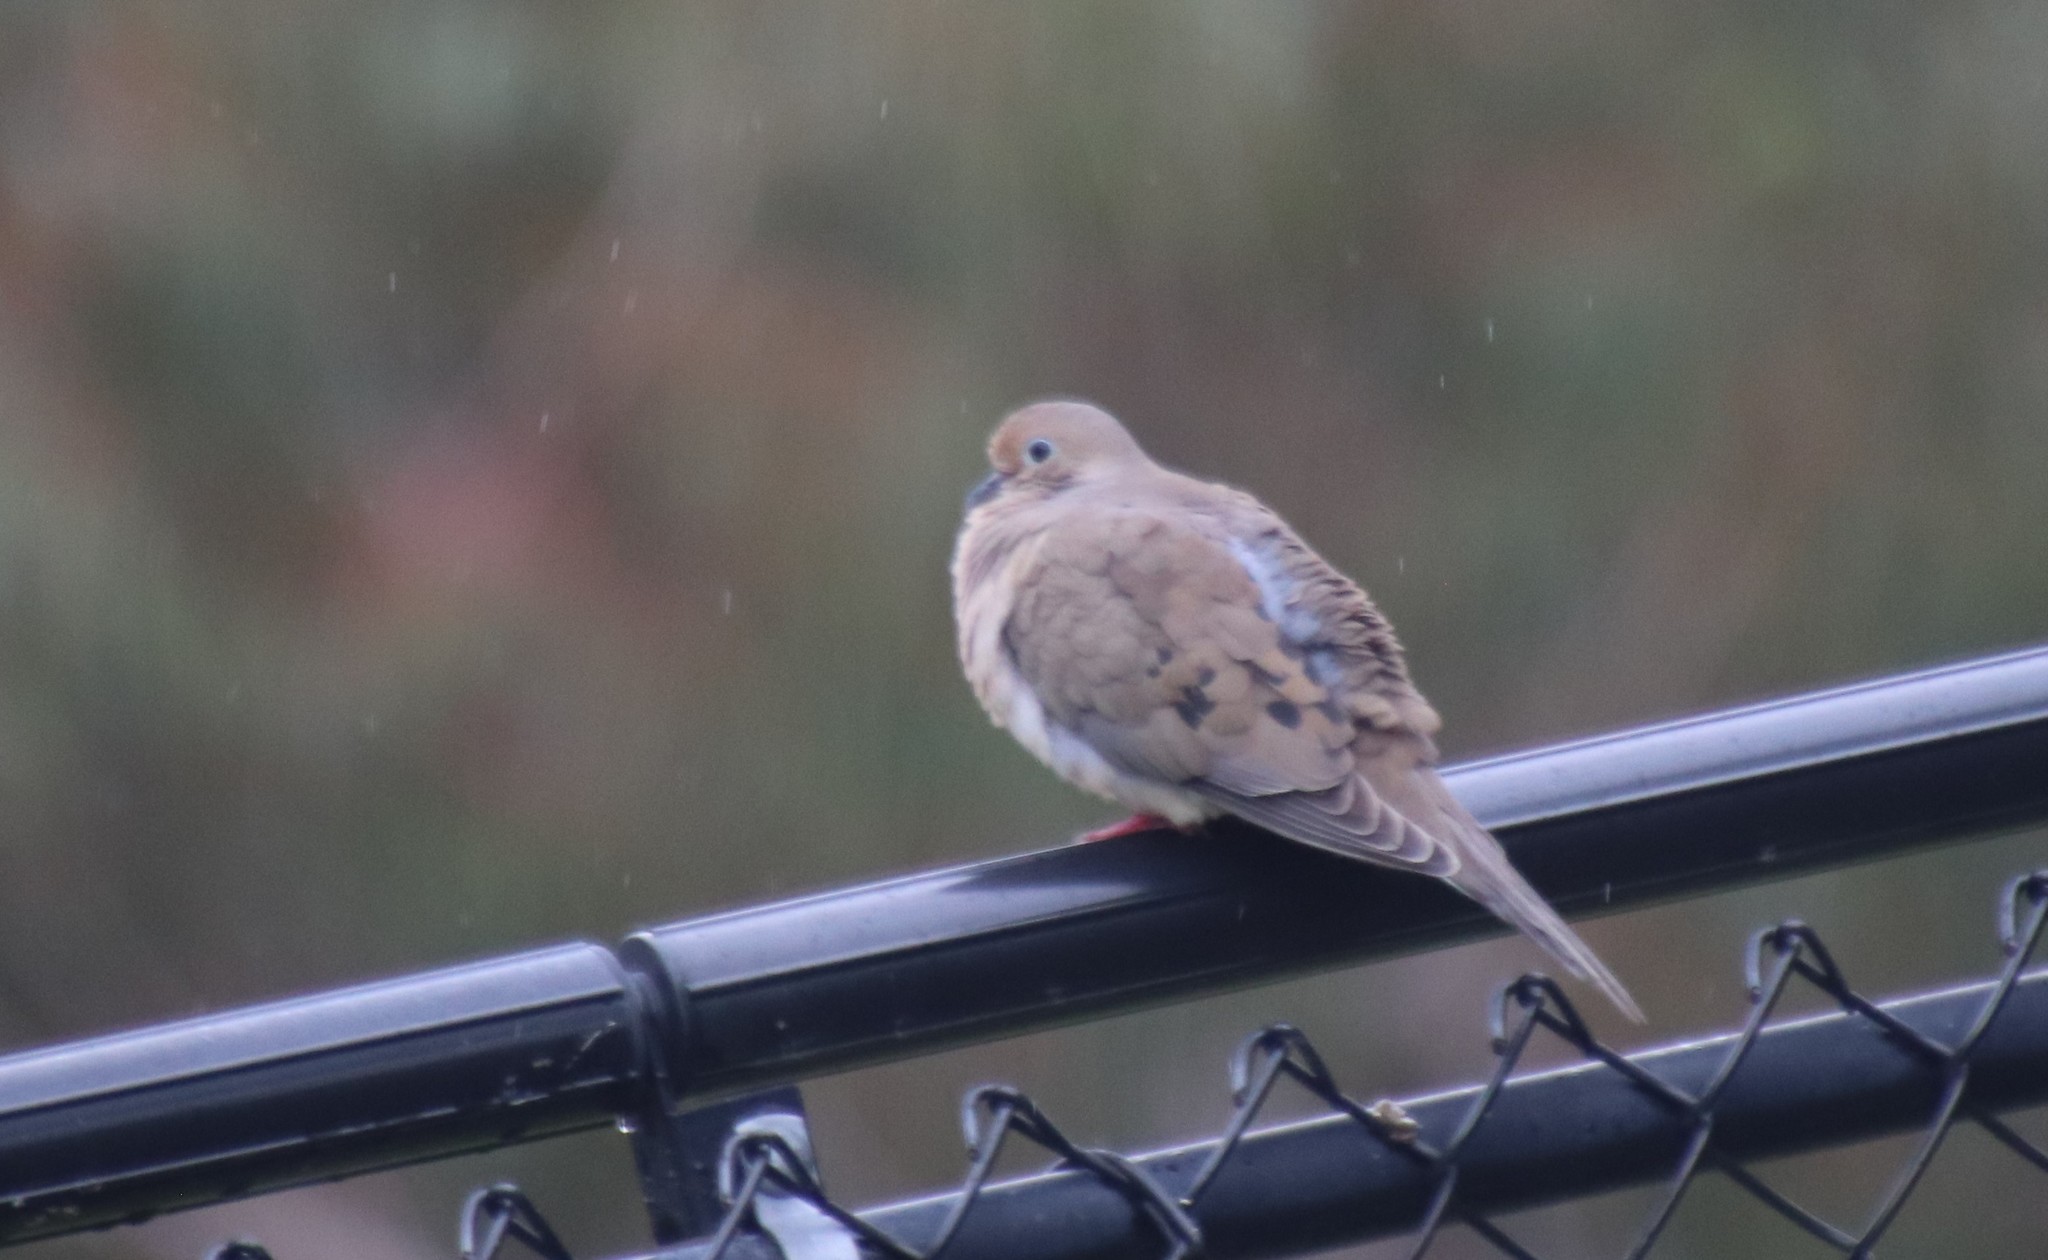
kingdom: Animalia
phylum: Chordata
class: Aves
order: Columbiformes
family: Columbidae
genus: Zenaida
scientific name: Zenaida macroura
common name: Mourning dove
